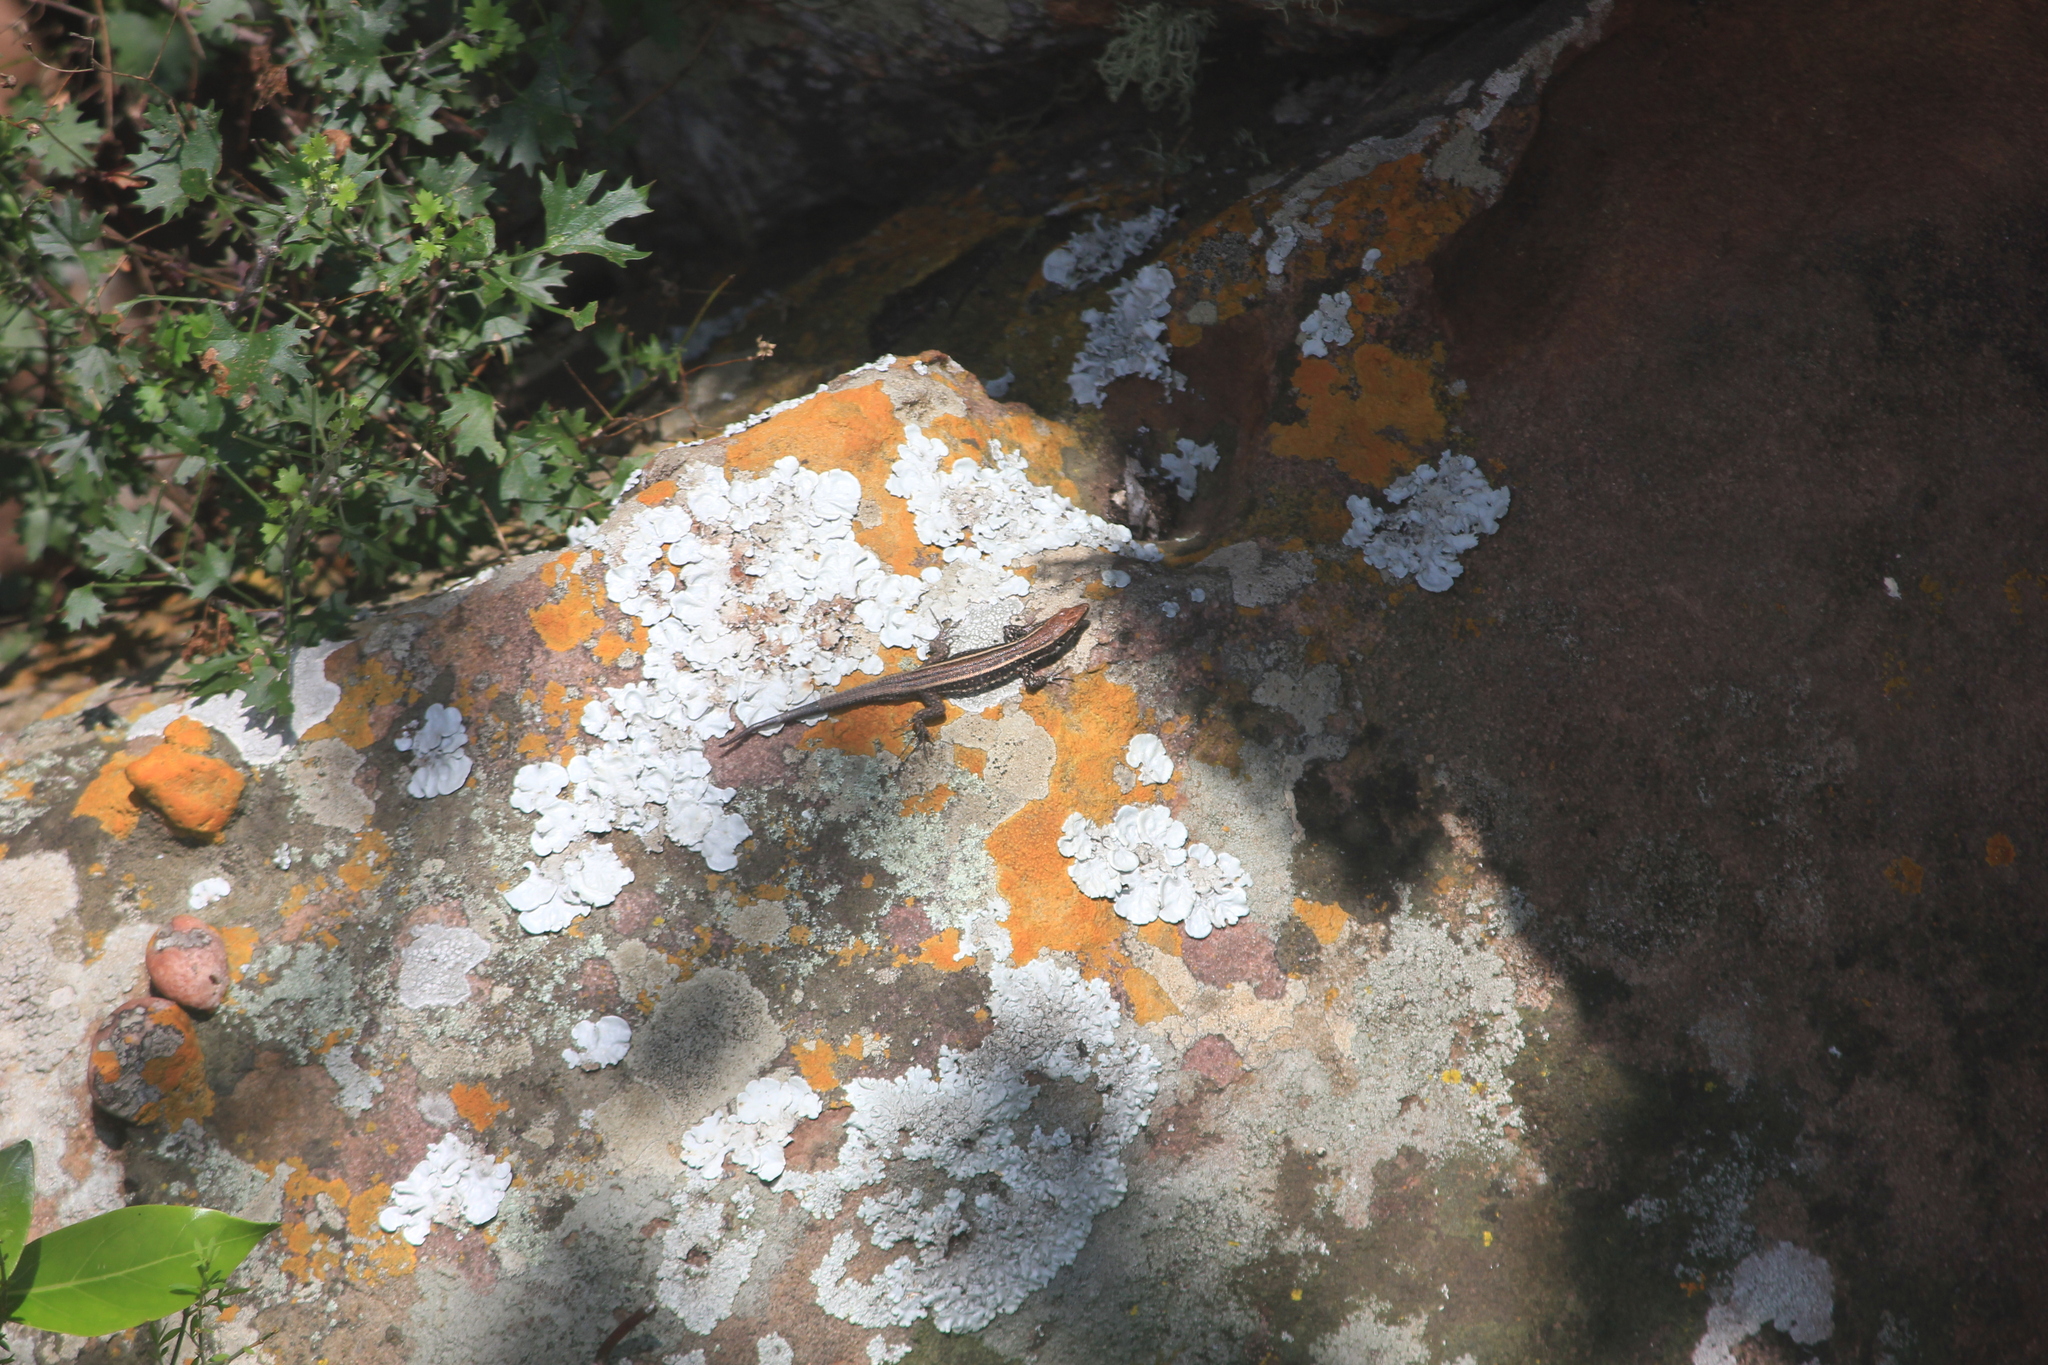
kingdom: Animalia
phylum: Chordata
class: Squamata
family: Lacertidae
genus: Vhembelacerta
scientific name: Vhembelacerta rupicola
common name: Soutpansberg rock lizard
